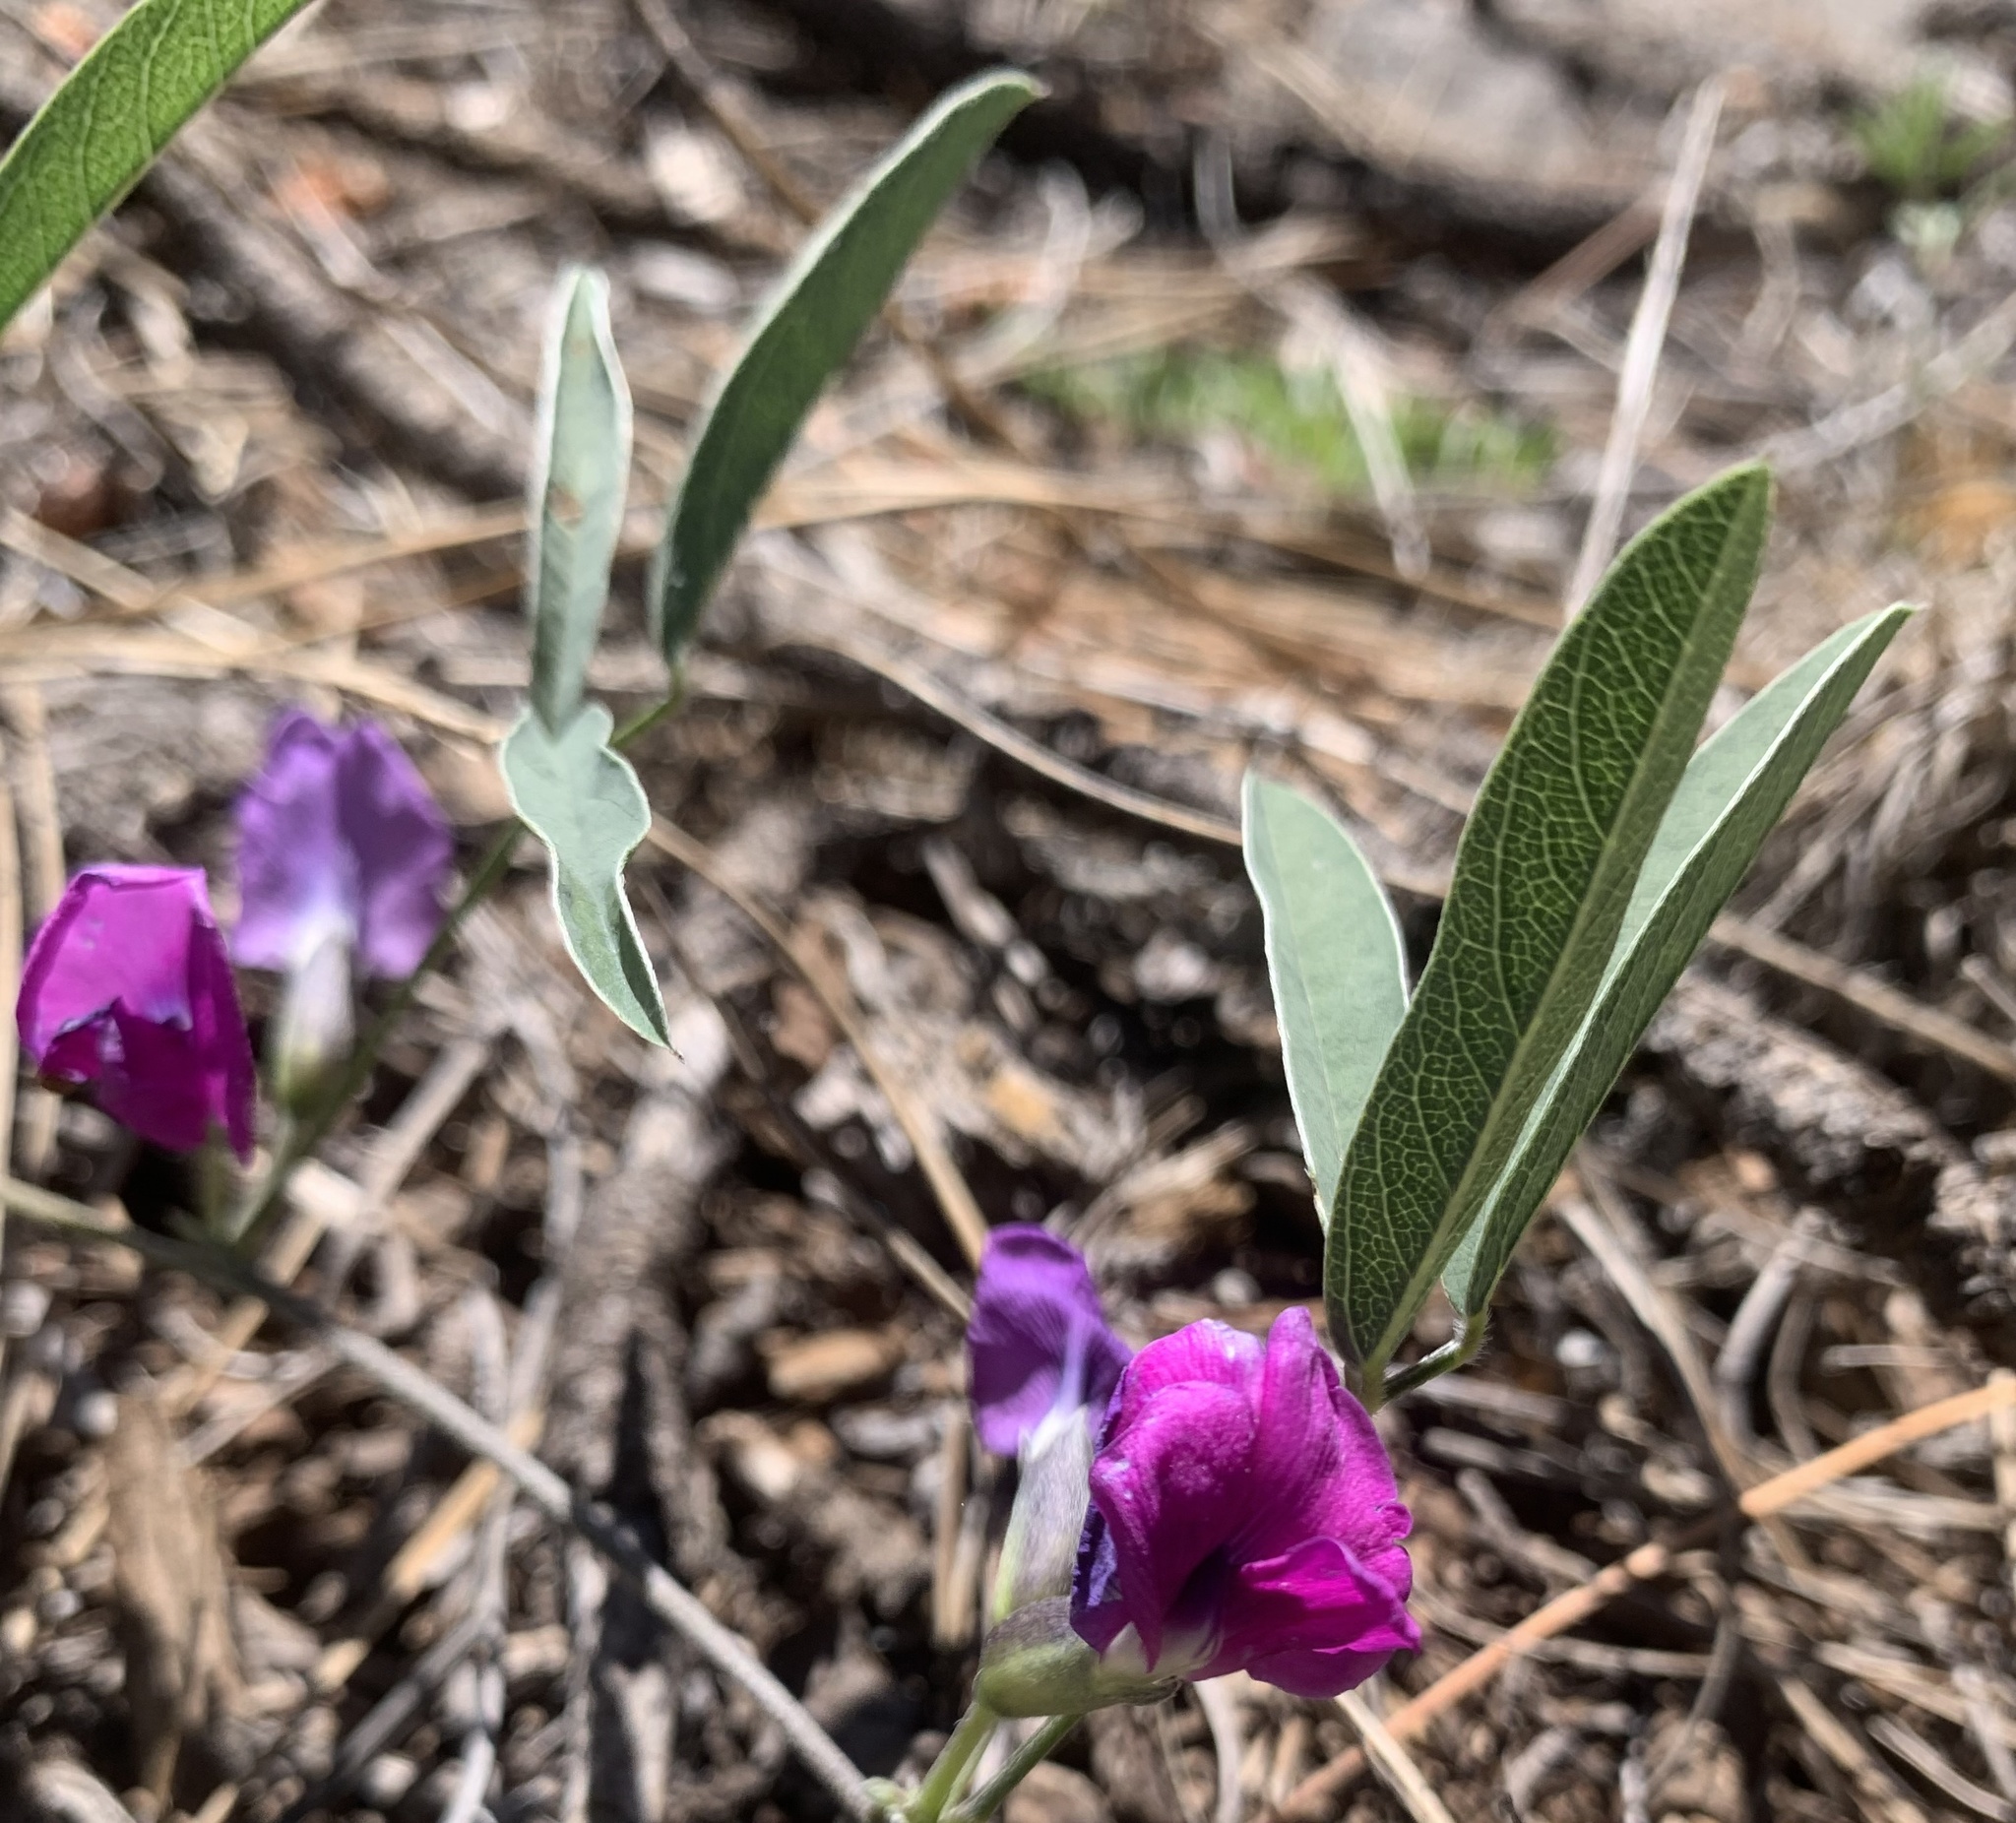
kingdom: Plantae
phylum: Tracheophyta
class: Magnoliopsida
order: Fabales
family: Fabaceae
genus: Cologania
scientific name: Cologania angustifolia
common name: Longleaf cologania
